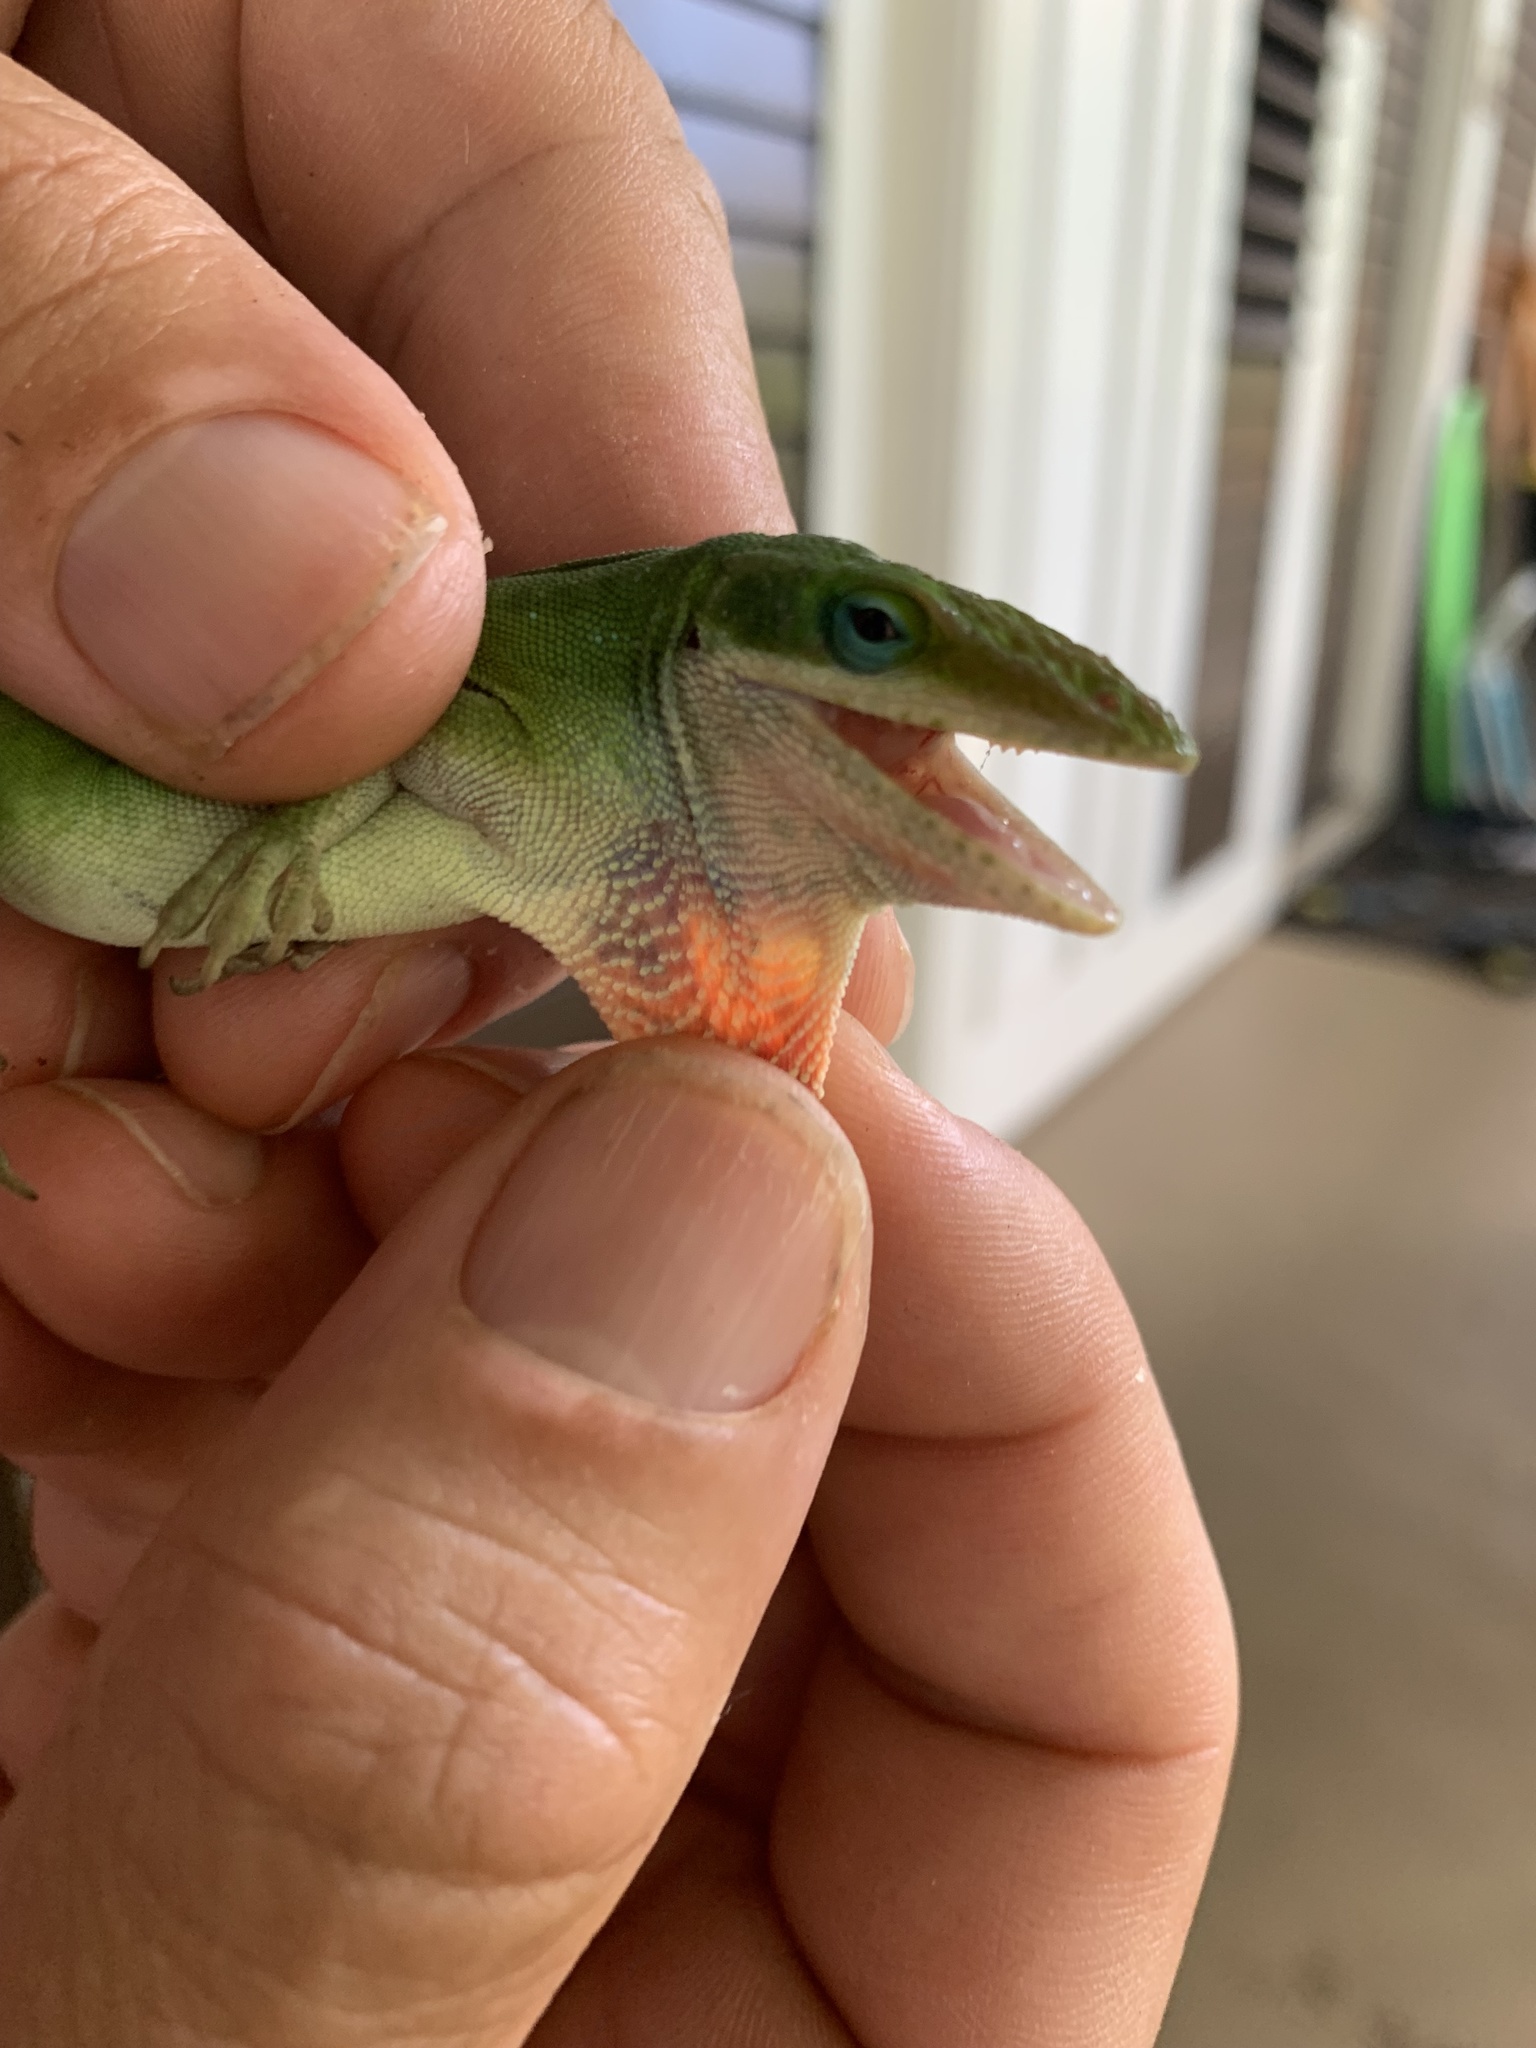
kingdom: Animalia
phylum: Chordata
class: Squamata
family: Dactyloidae
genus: Anolis
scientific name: Anolis carolinensis
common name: Green anole
